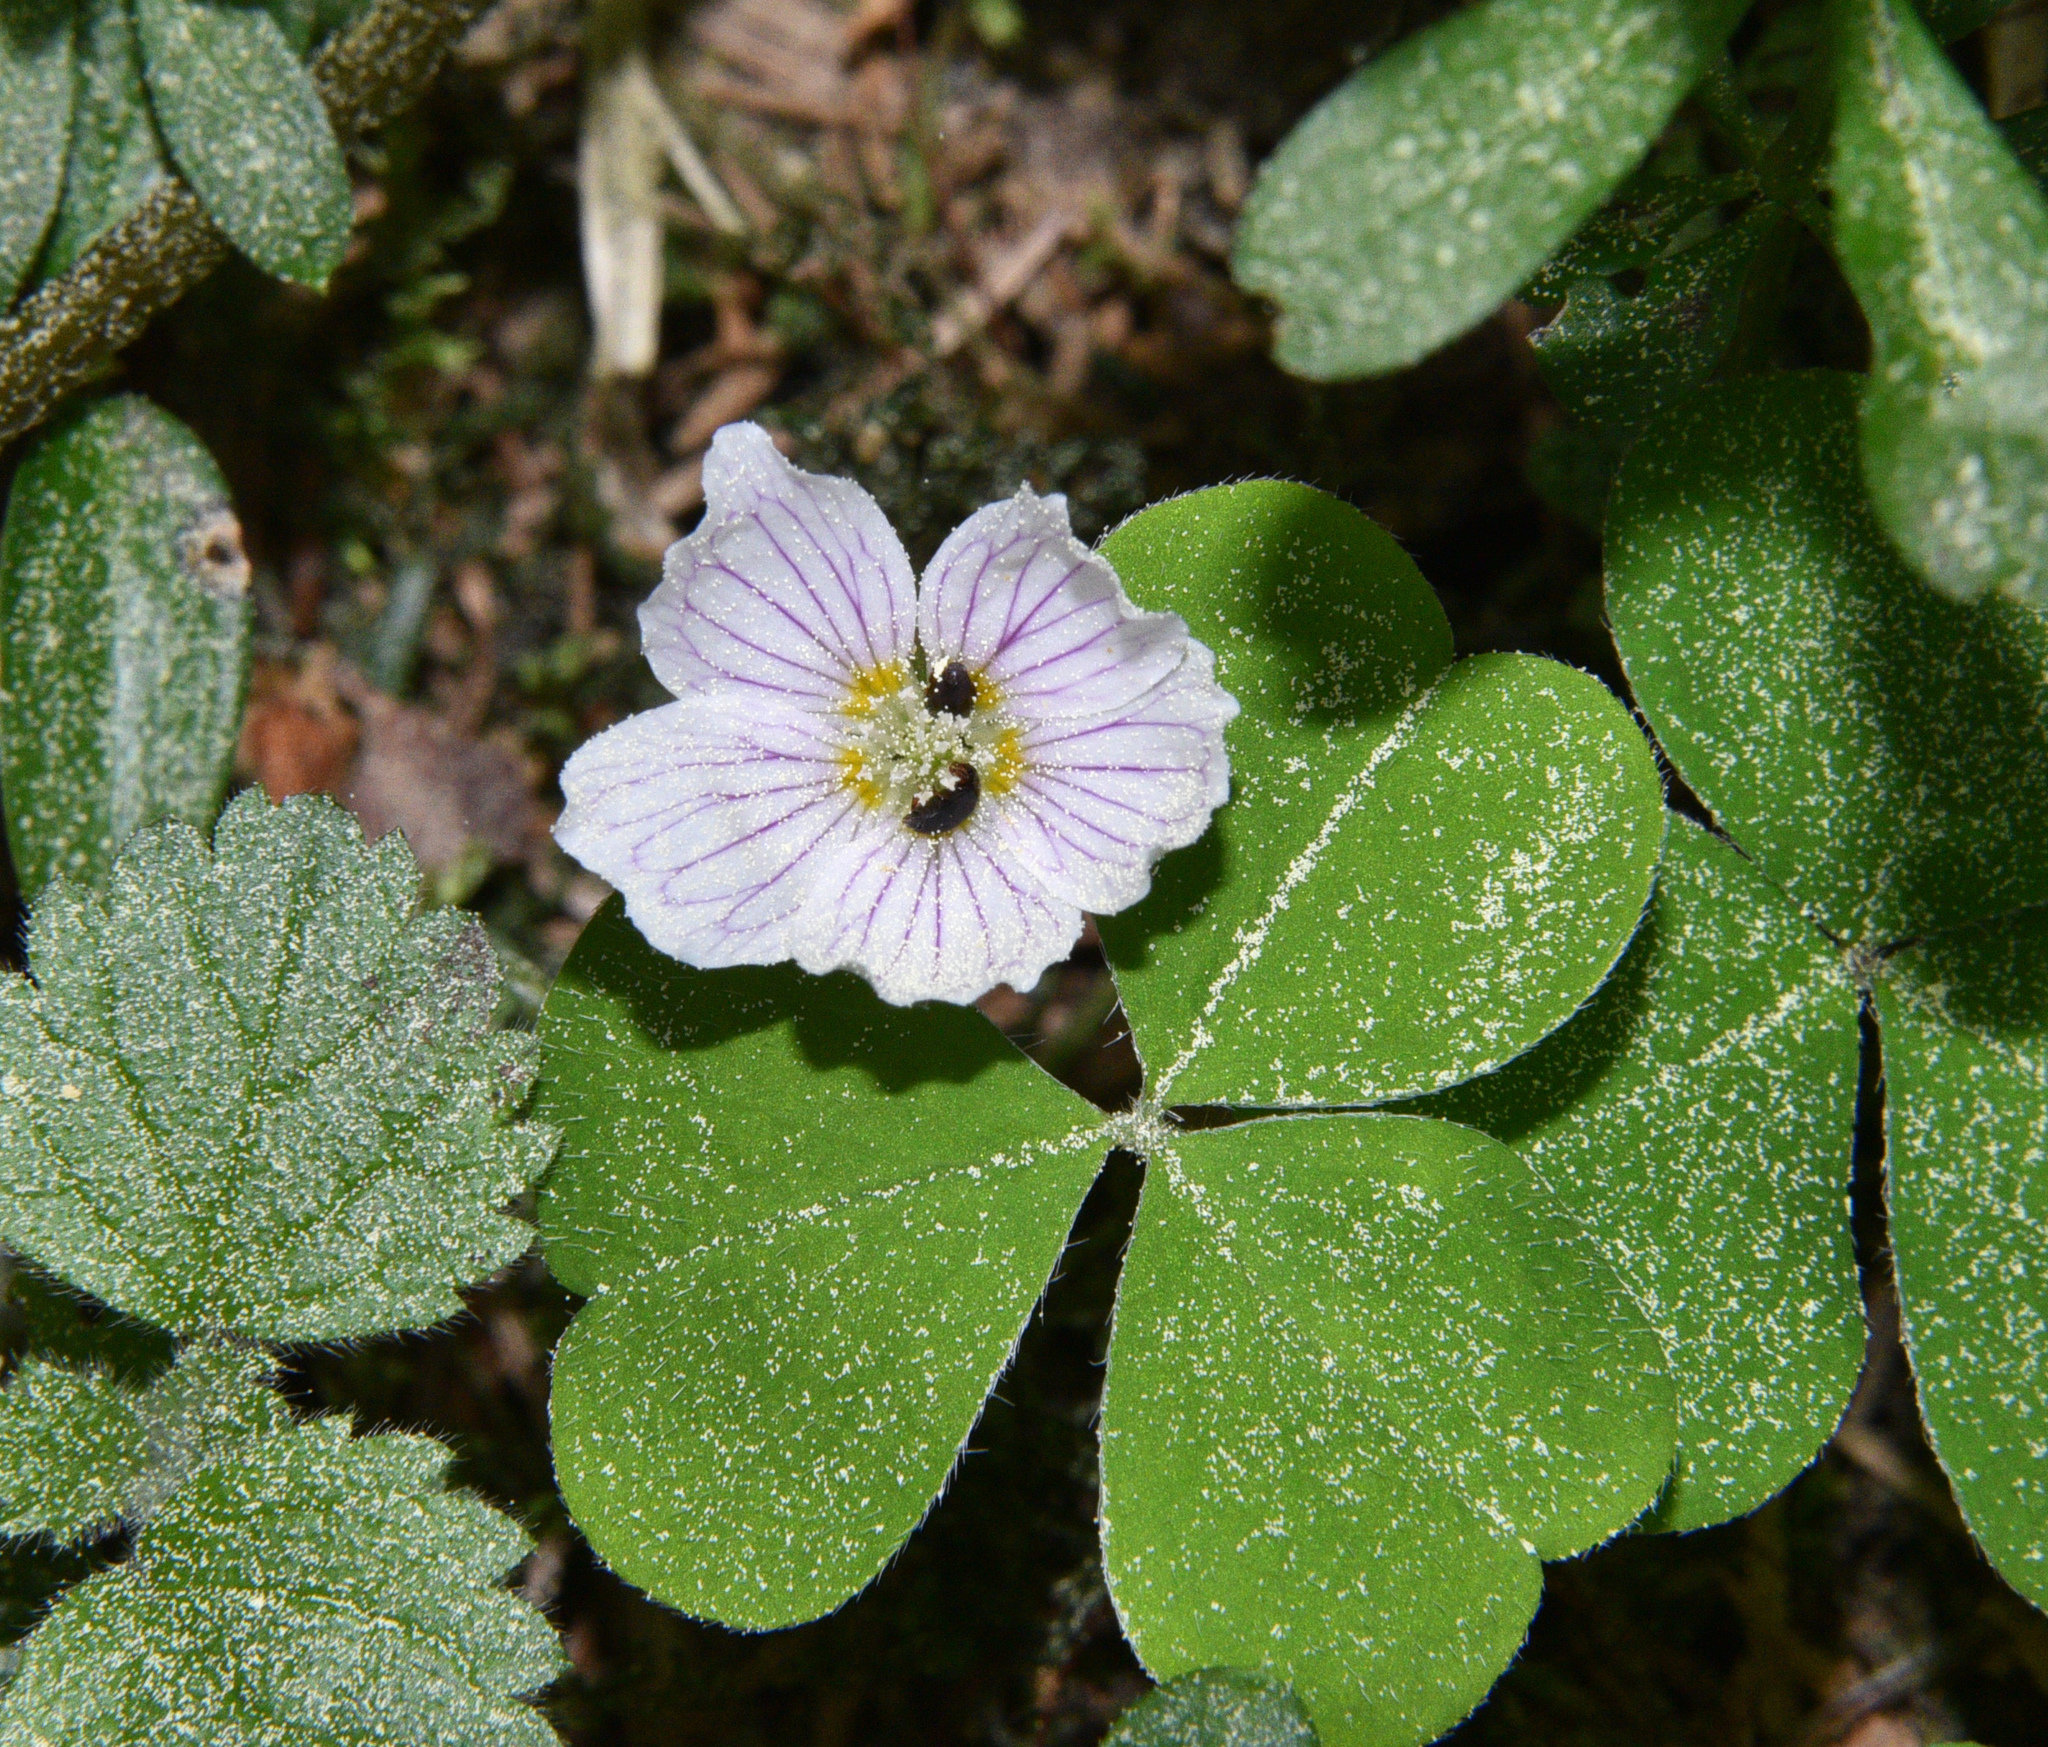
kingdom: Plantae
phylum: Tracheophyta
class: Magnoliopsida
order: Oxalidales
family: Oxalidaceae
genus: Oxalis
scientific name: Oxalis acetosella
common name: Wood-sorrel
